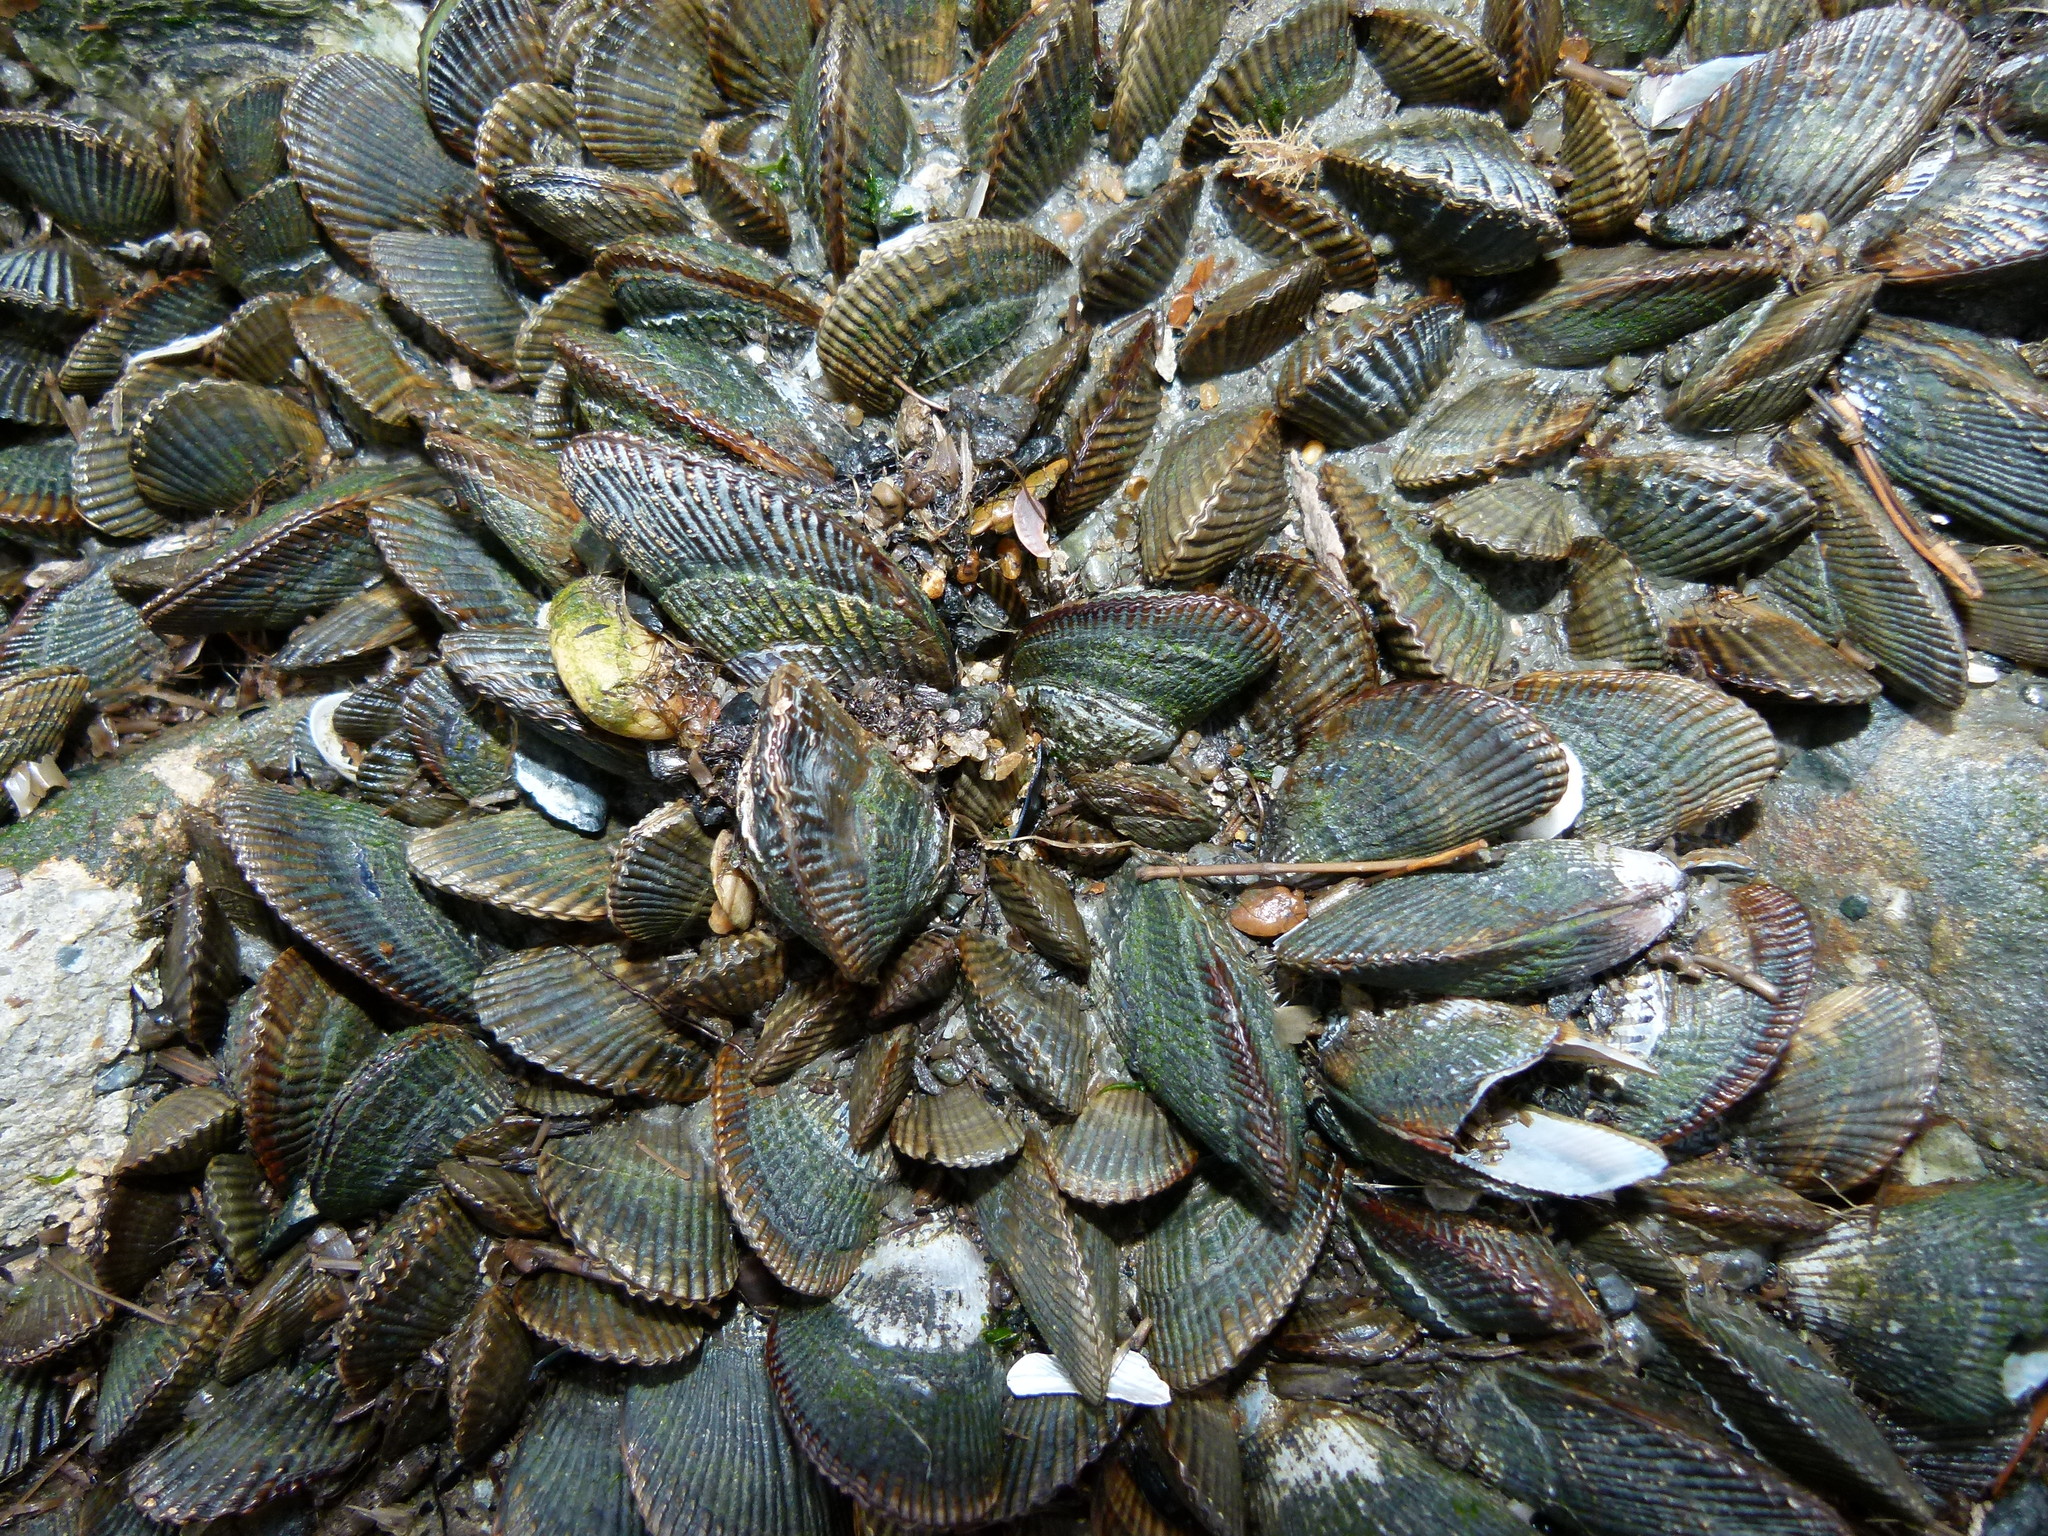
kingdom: Animalia
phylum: Mollusca
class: Bivalvia
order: Mytilida
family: Mytilidae
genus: Geukensia
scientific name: Geukensia demissa
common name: Ribbed mussel
